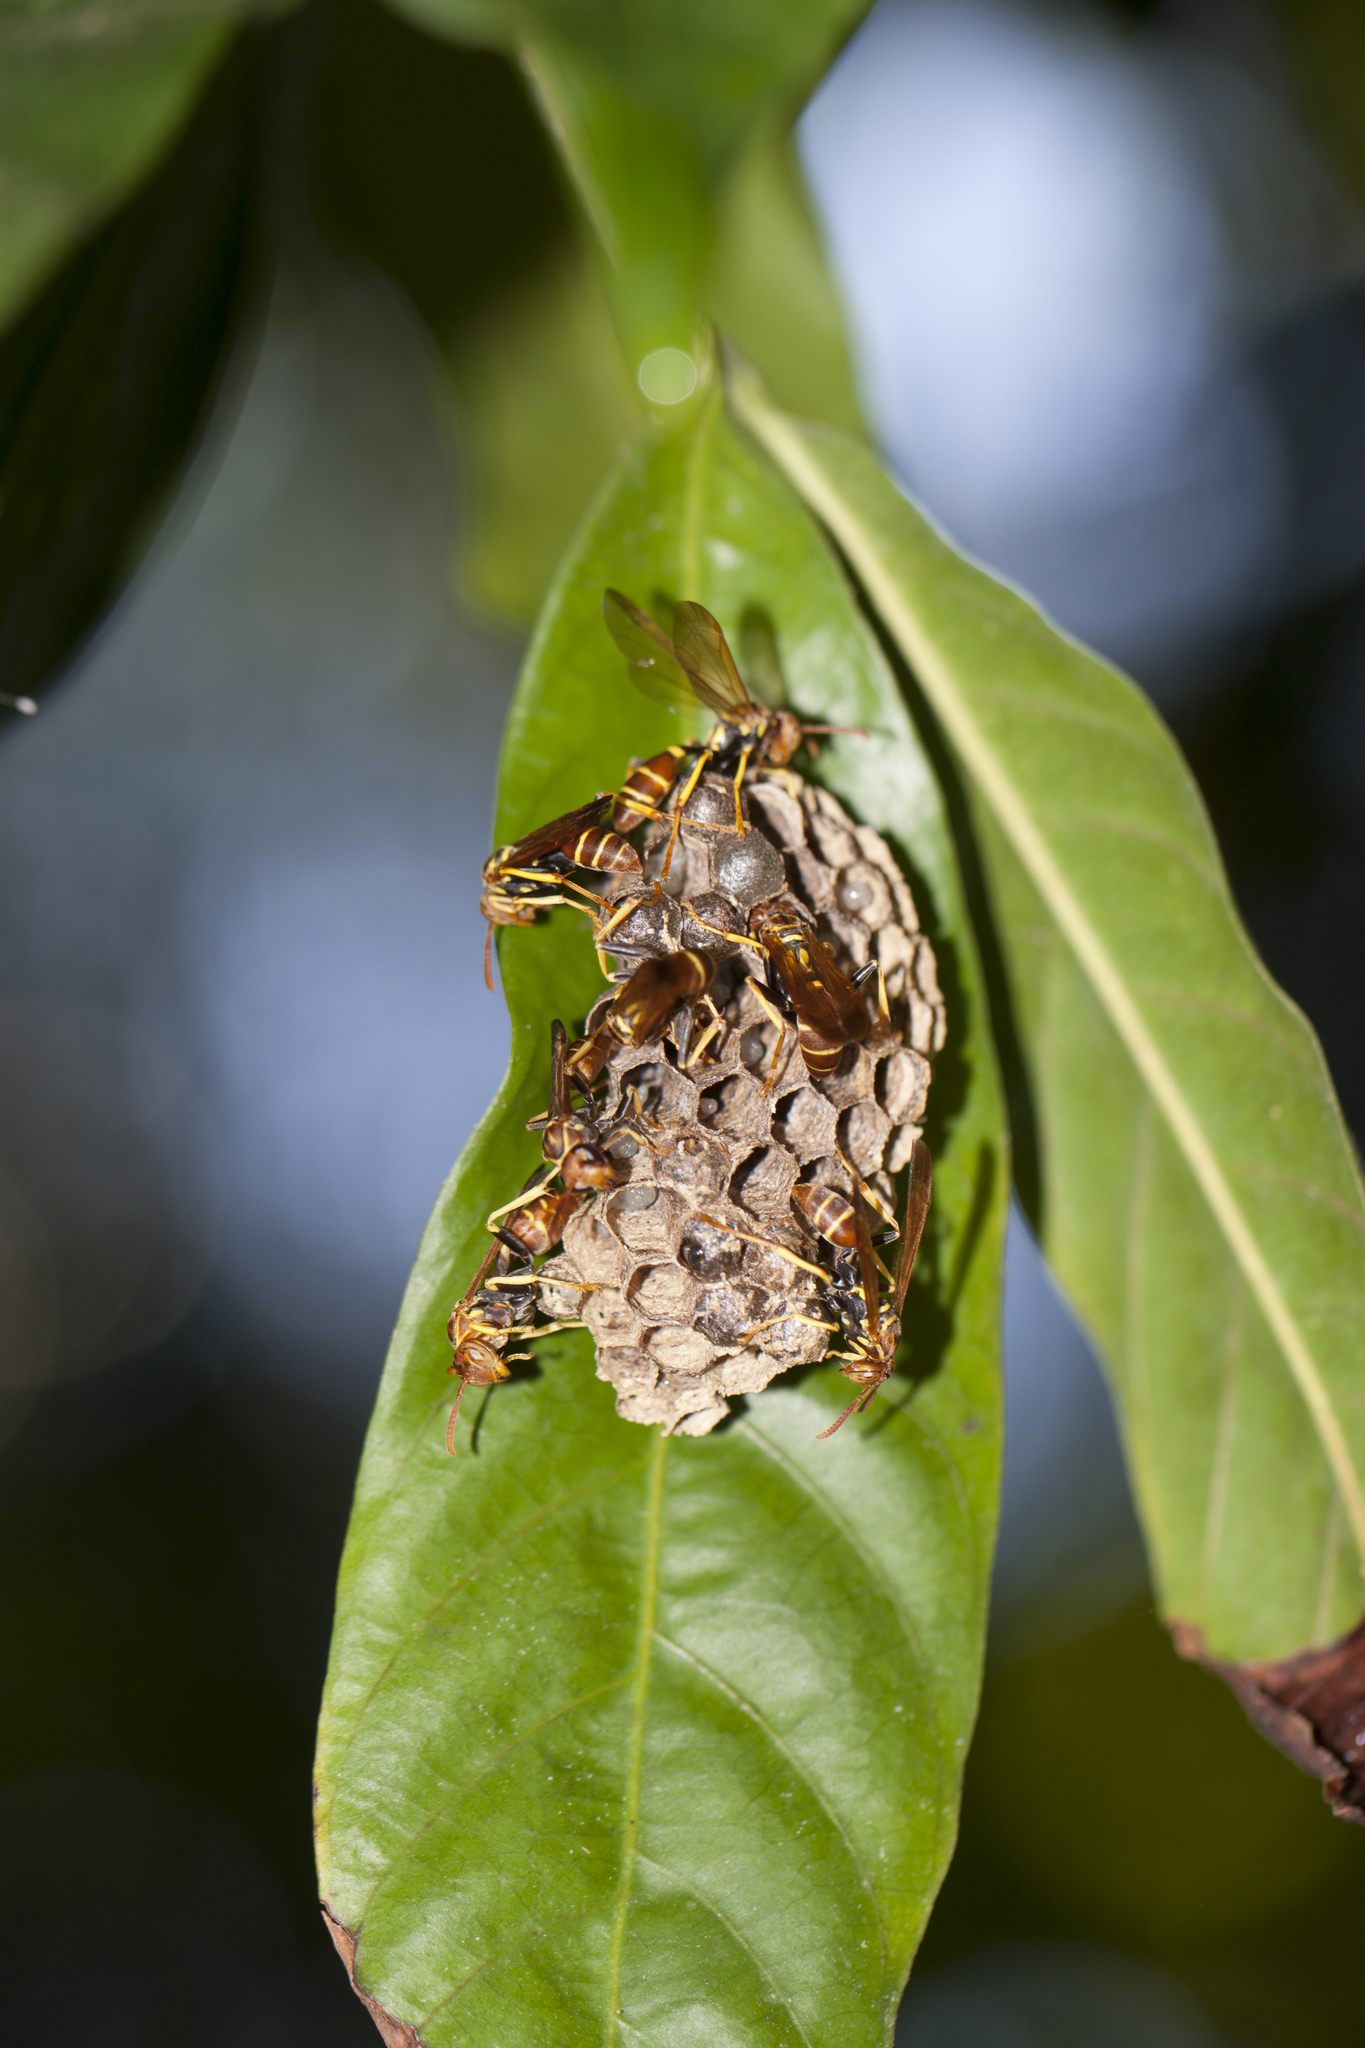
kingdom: Animalia
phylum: Arthropoda
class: Insecta
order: Hymenoptera
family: Vespidae
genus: Mischocyttarus
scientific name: Mischocyttarus phthisicus
